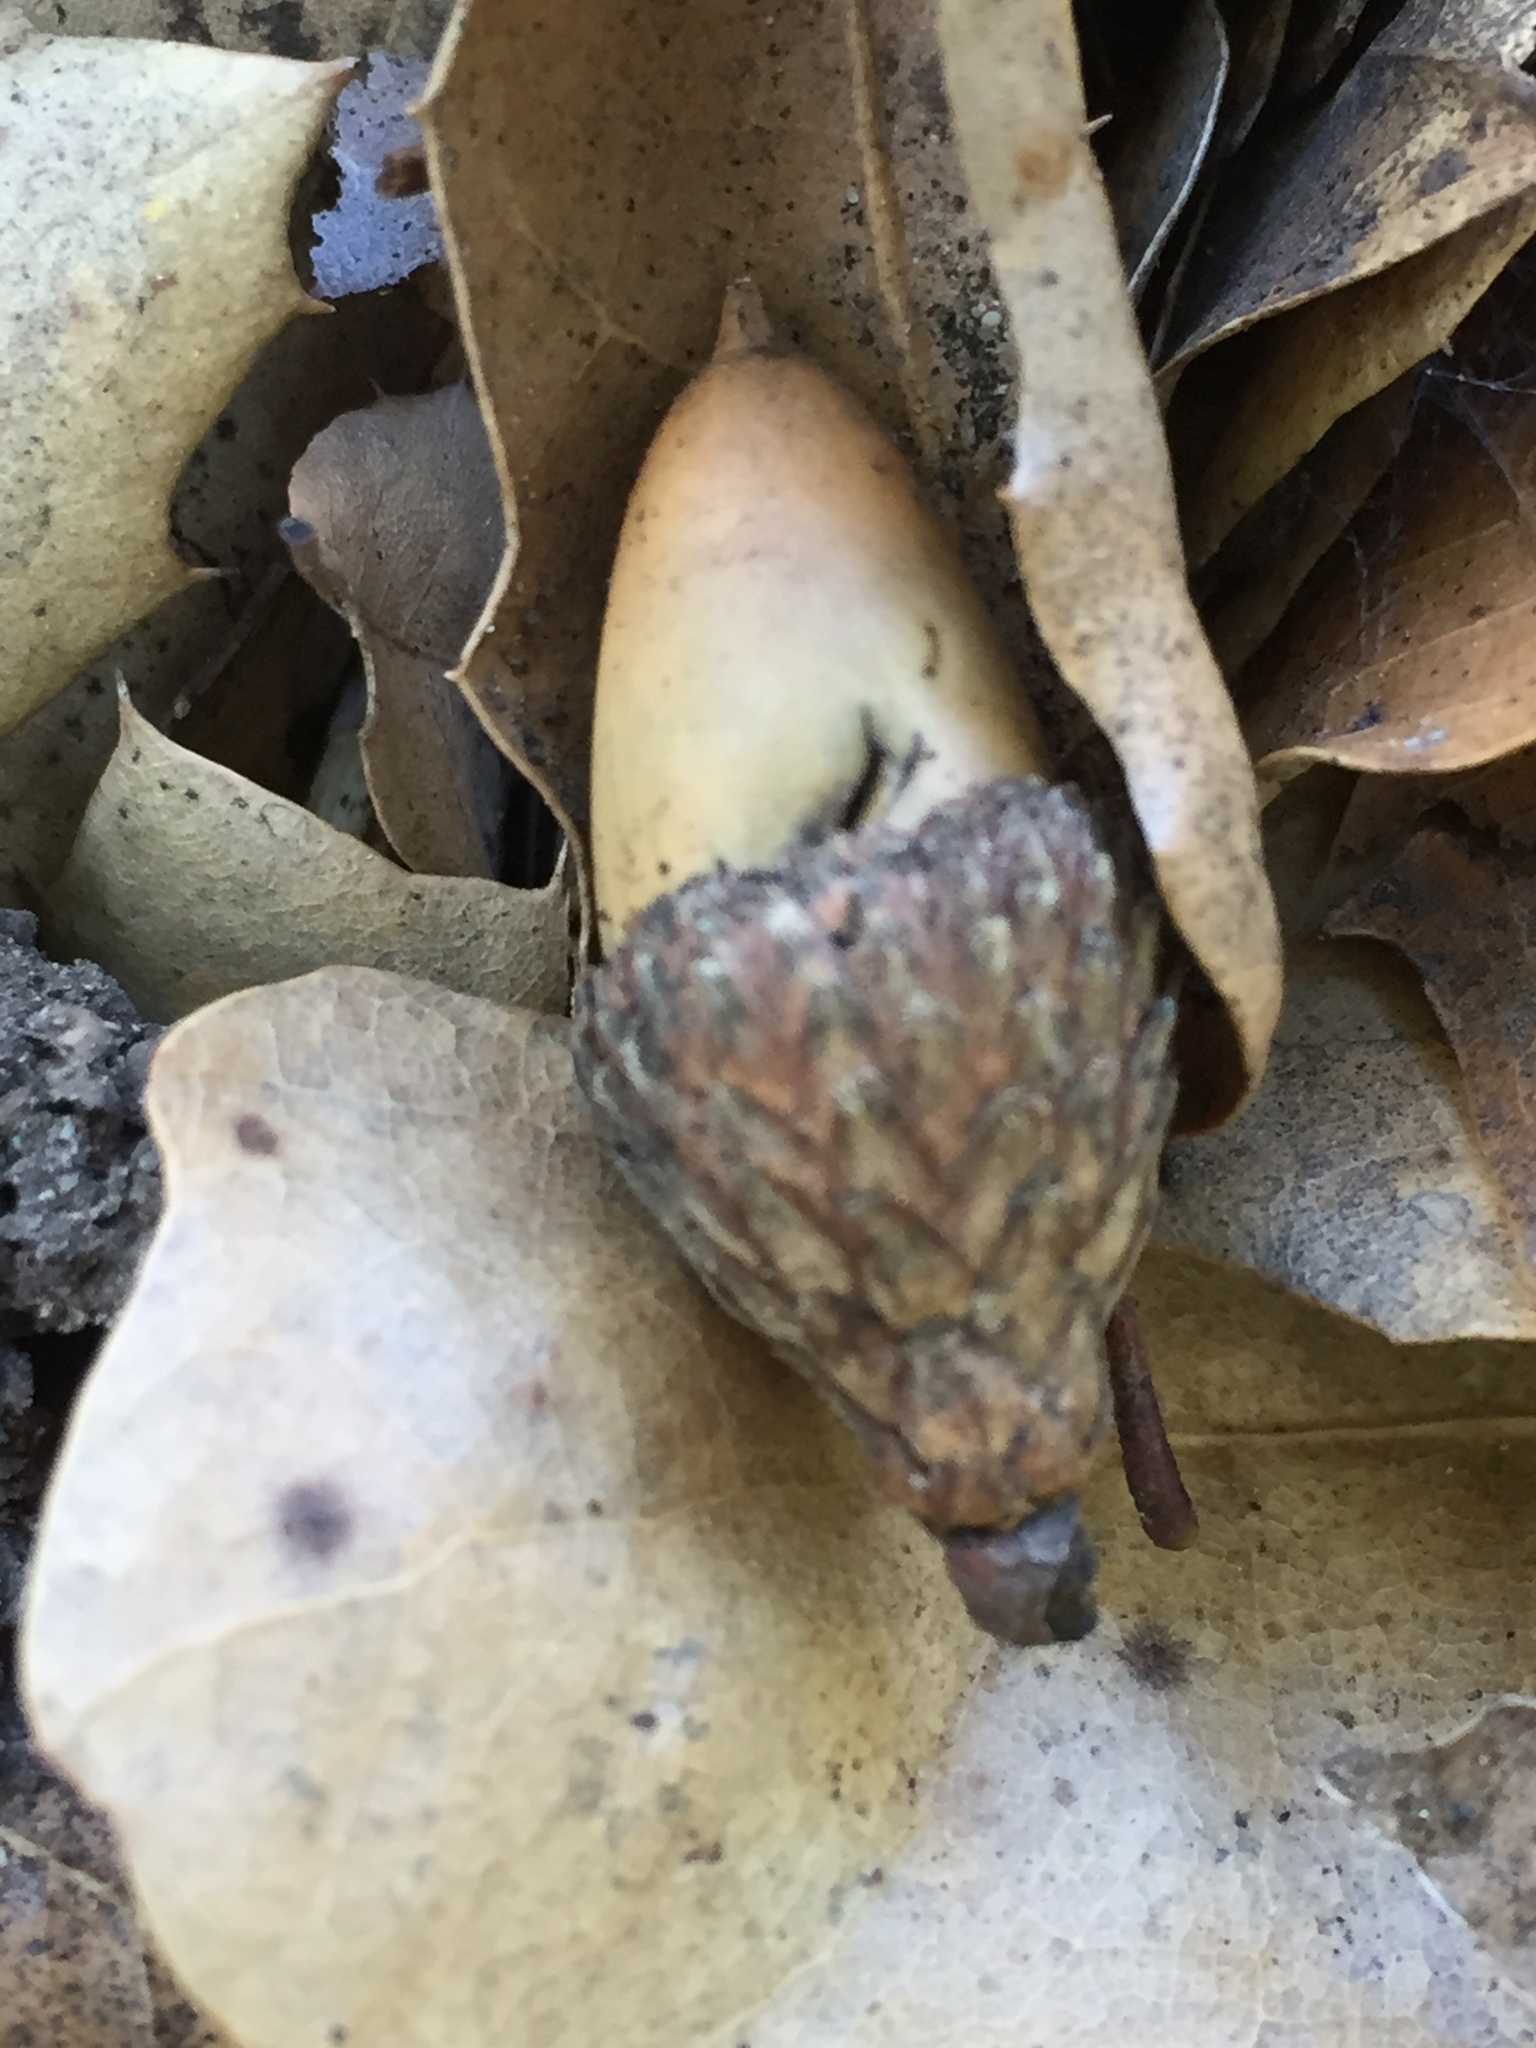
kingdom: Plantae
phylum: Tracheophyta
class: Magnoliopsida
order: Fagales
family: Fagaceae
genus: Quercus
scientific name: Quercus agrifolia
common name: California live oak
